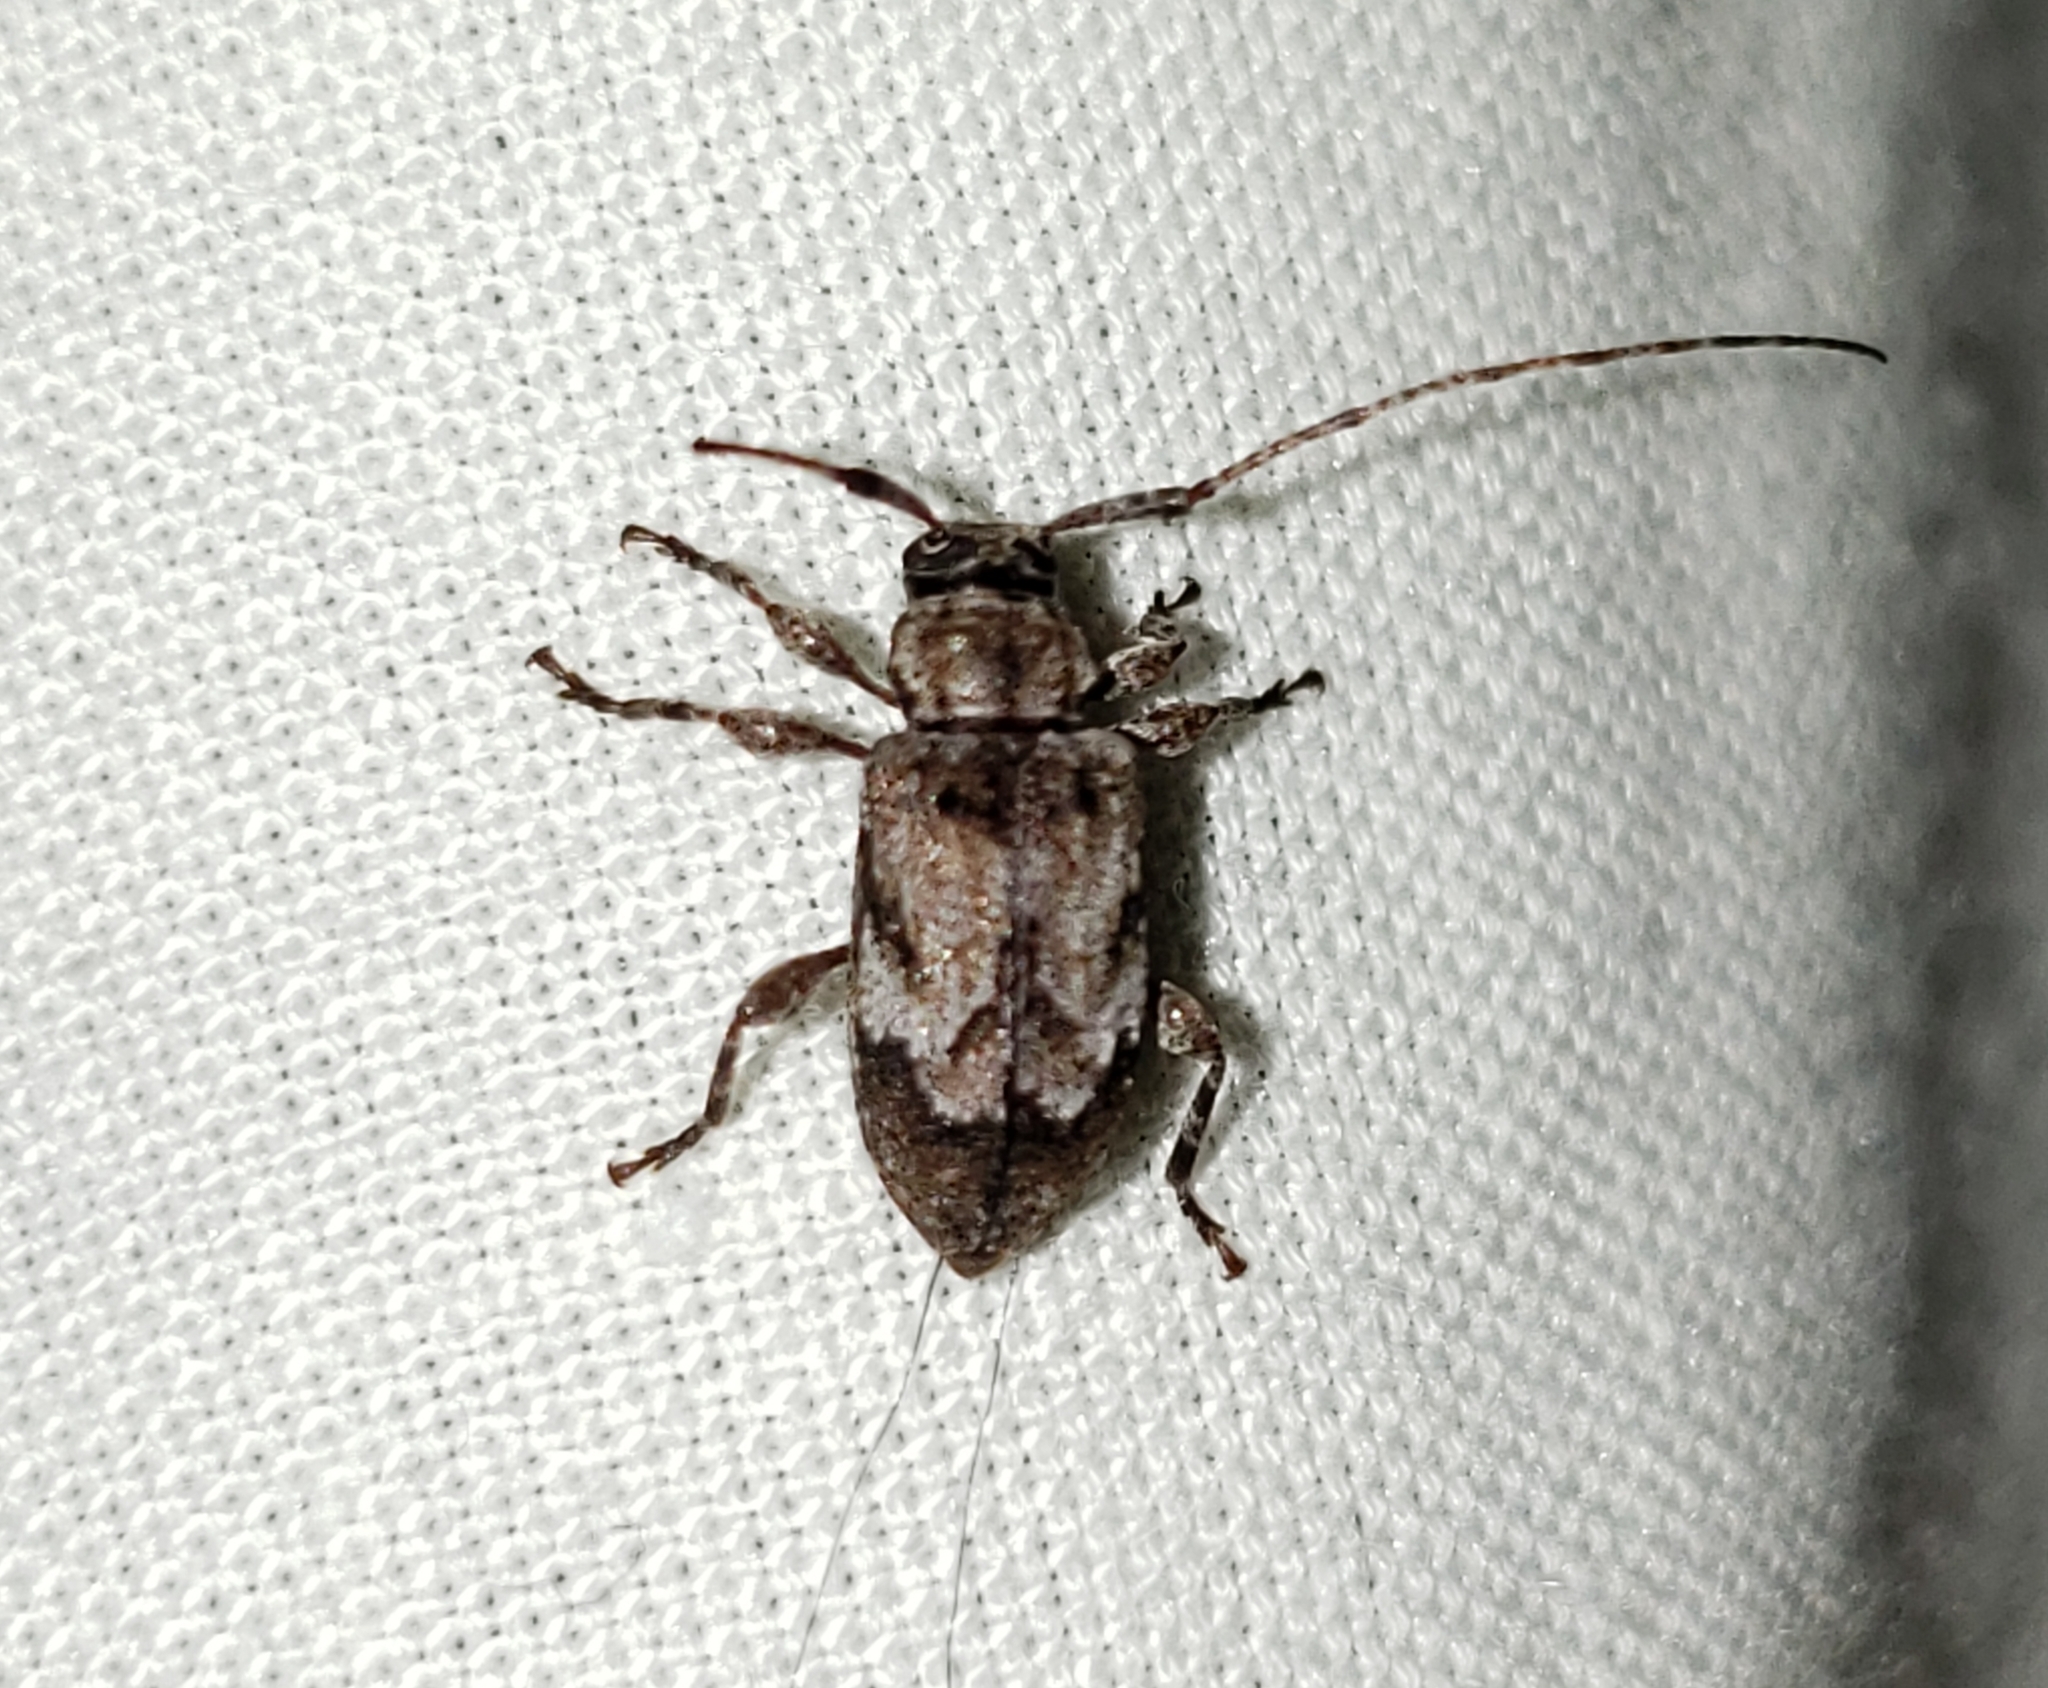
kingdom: Animalia
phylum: Arthropoda
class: Insecta
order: Coleoptera
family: Cerambycidae
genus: Astylopsis
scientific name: Astylopsis arcuata
